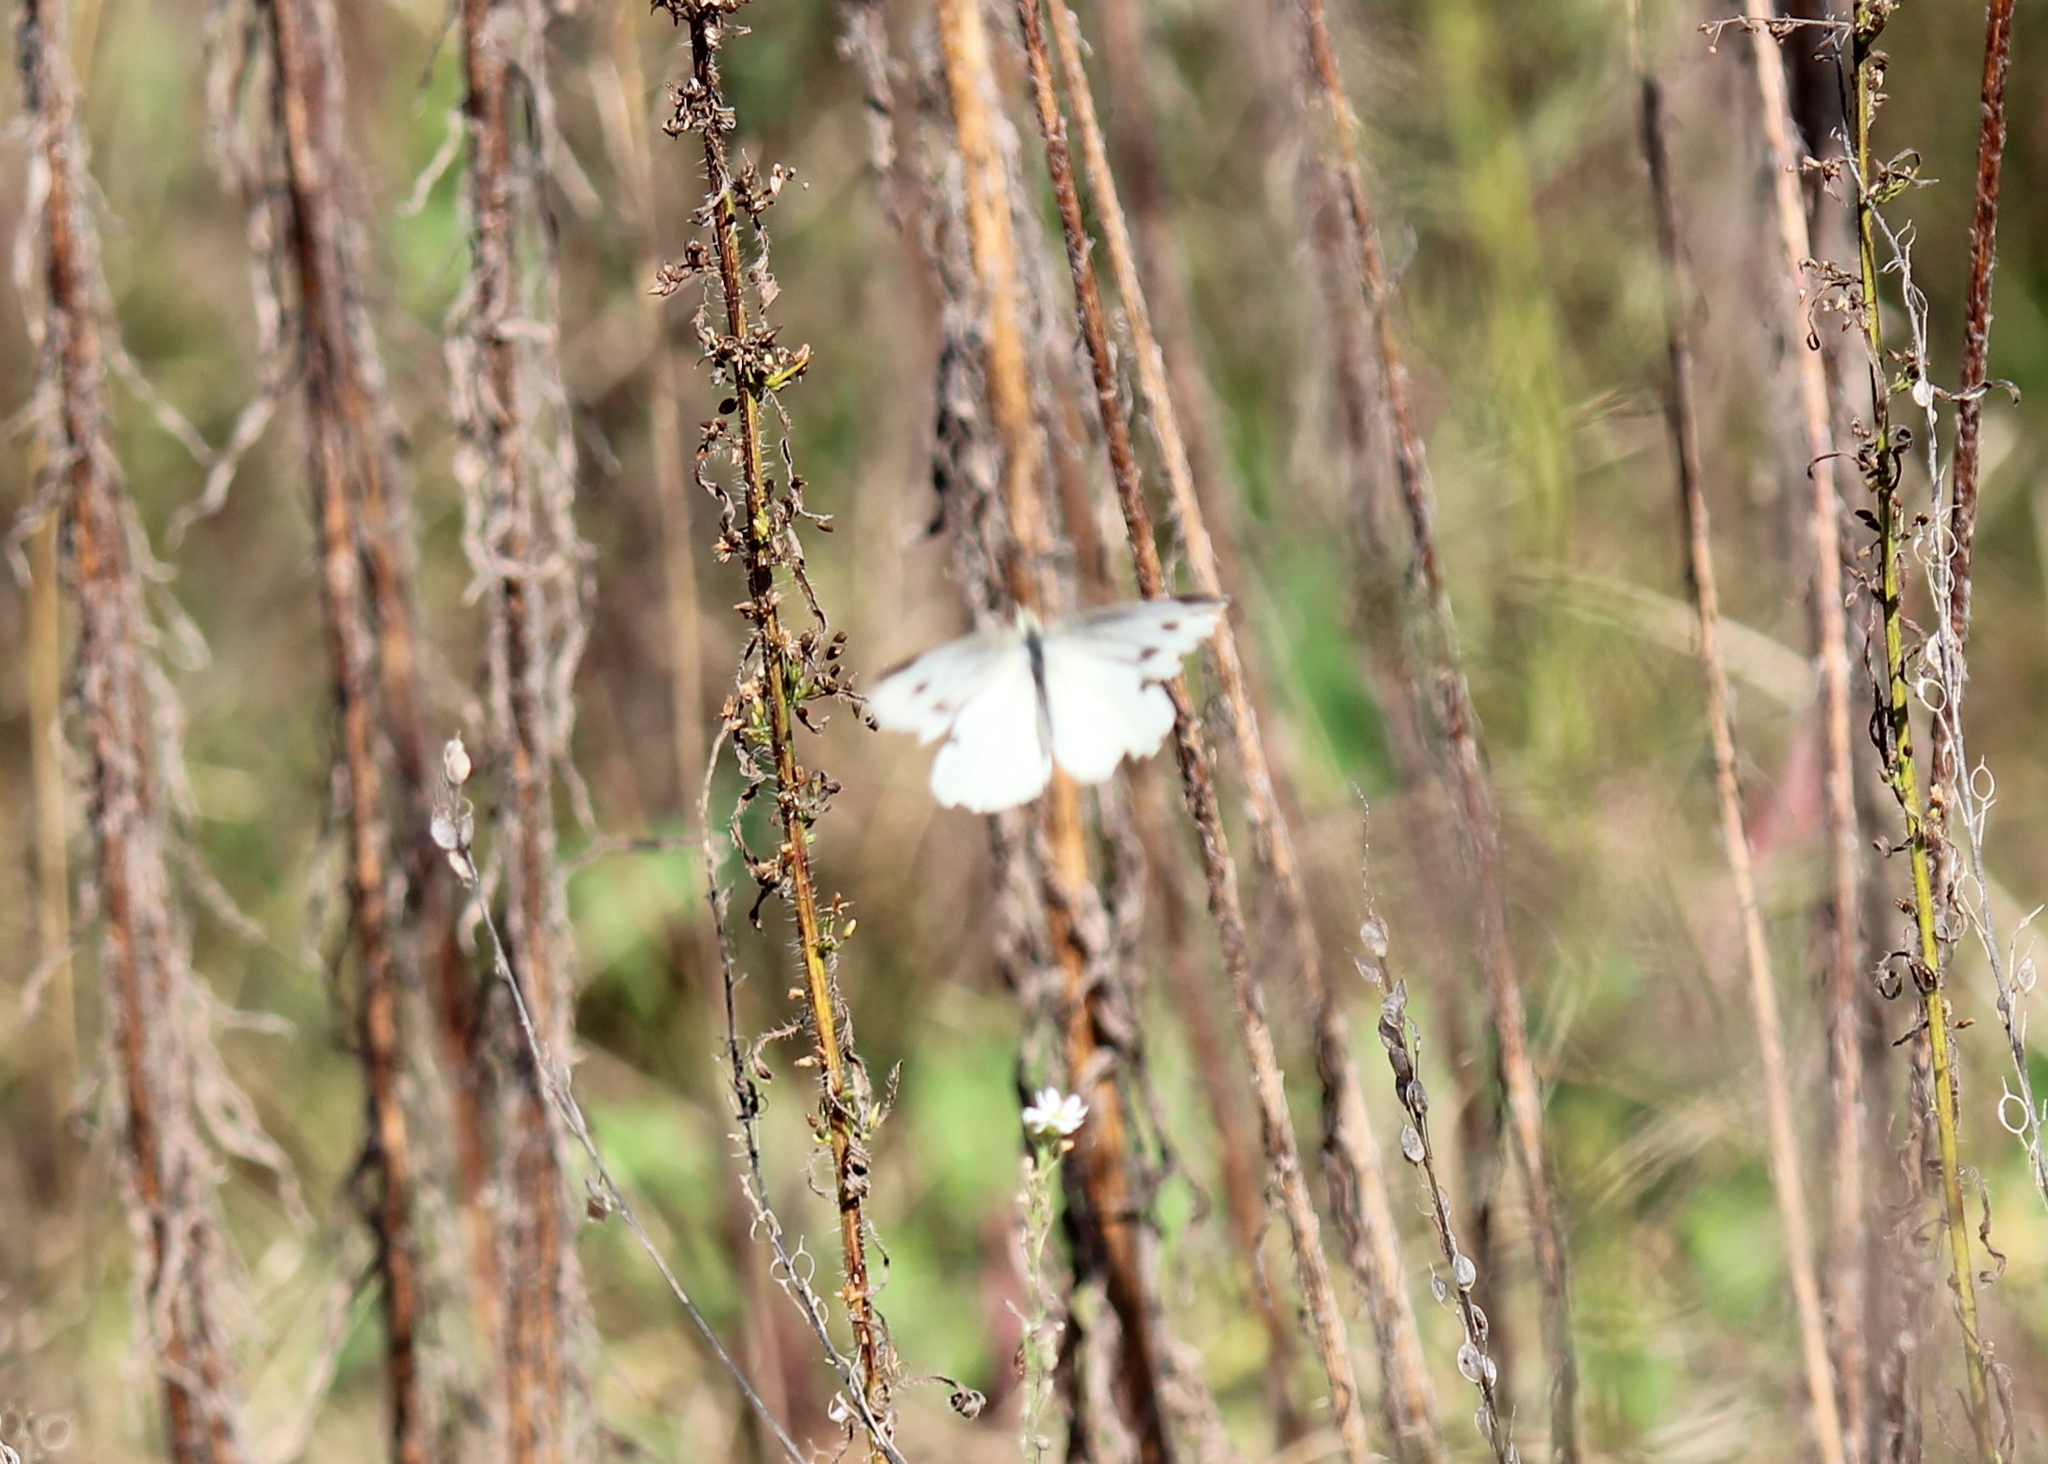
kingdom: Animalia
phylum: Arthropoda
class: Insecta
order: Lepidoptera
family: Pieridae
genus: Pieris
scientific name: Pieris rapae
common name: Small white
